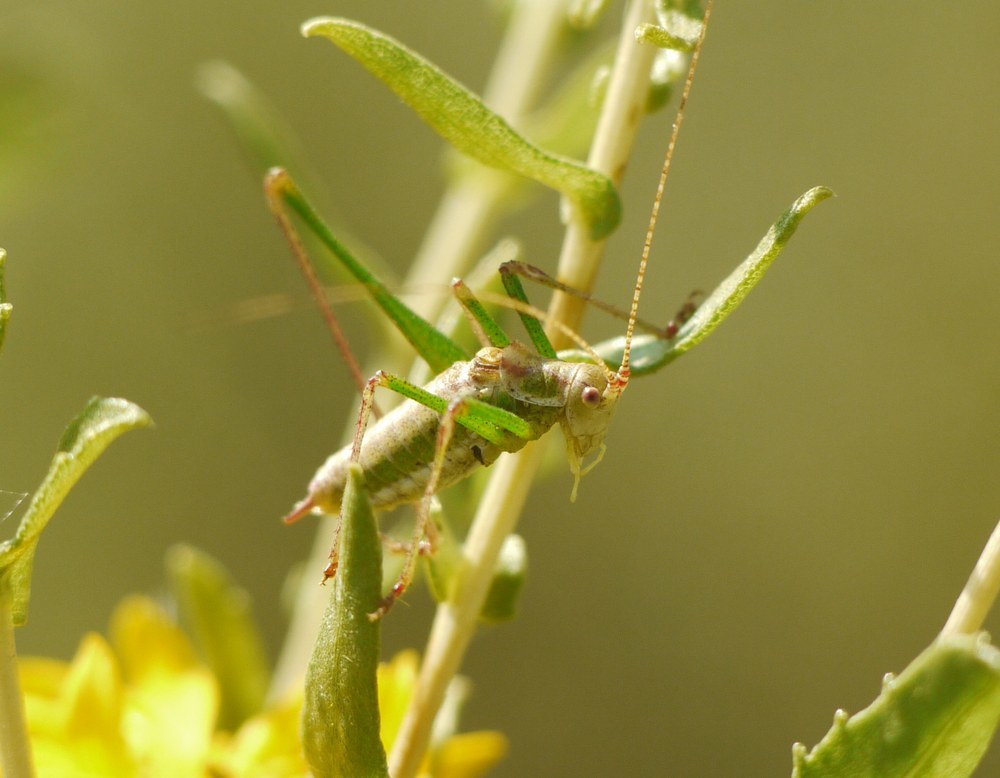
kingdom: Animalia
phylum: Arthropoda
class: Insecta
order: Orthoptera
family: Tettigoniidae
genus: Leptophyes
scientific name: Leptophyes albovittata
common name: Striped bush-cricket
